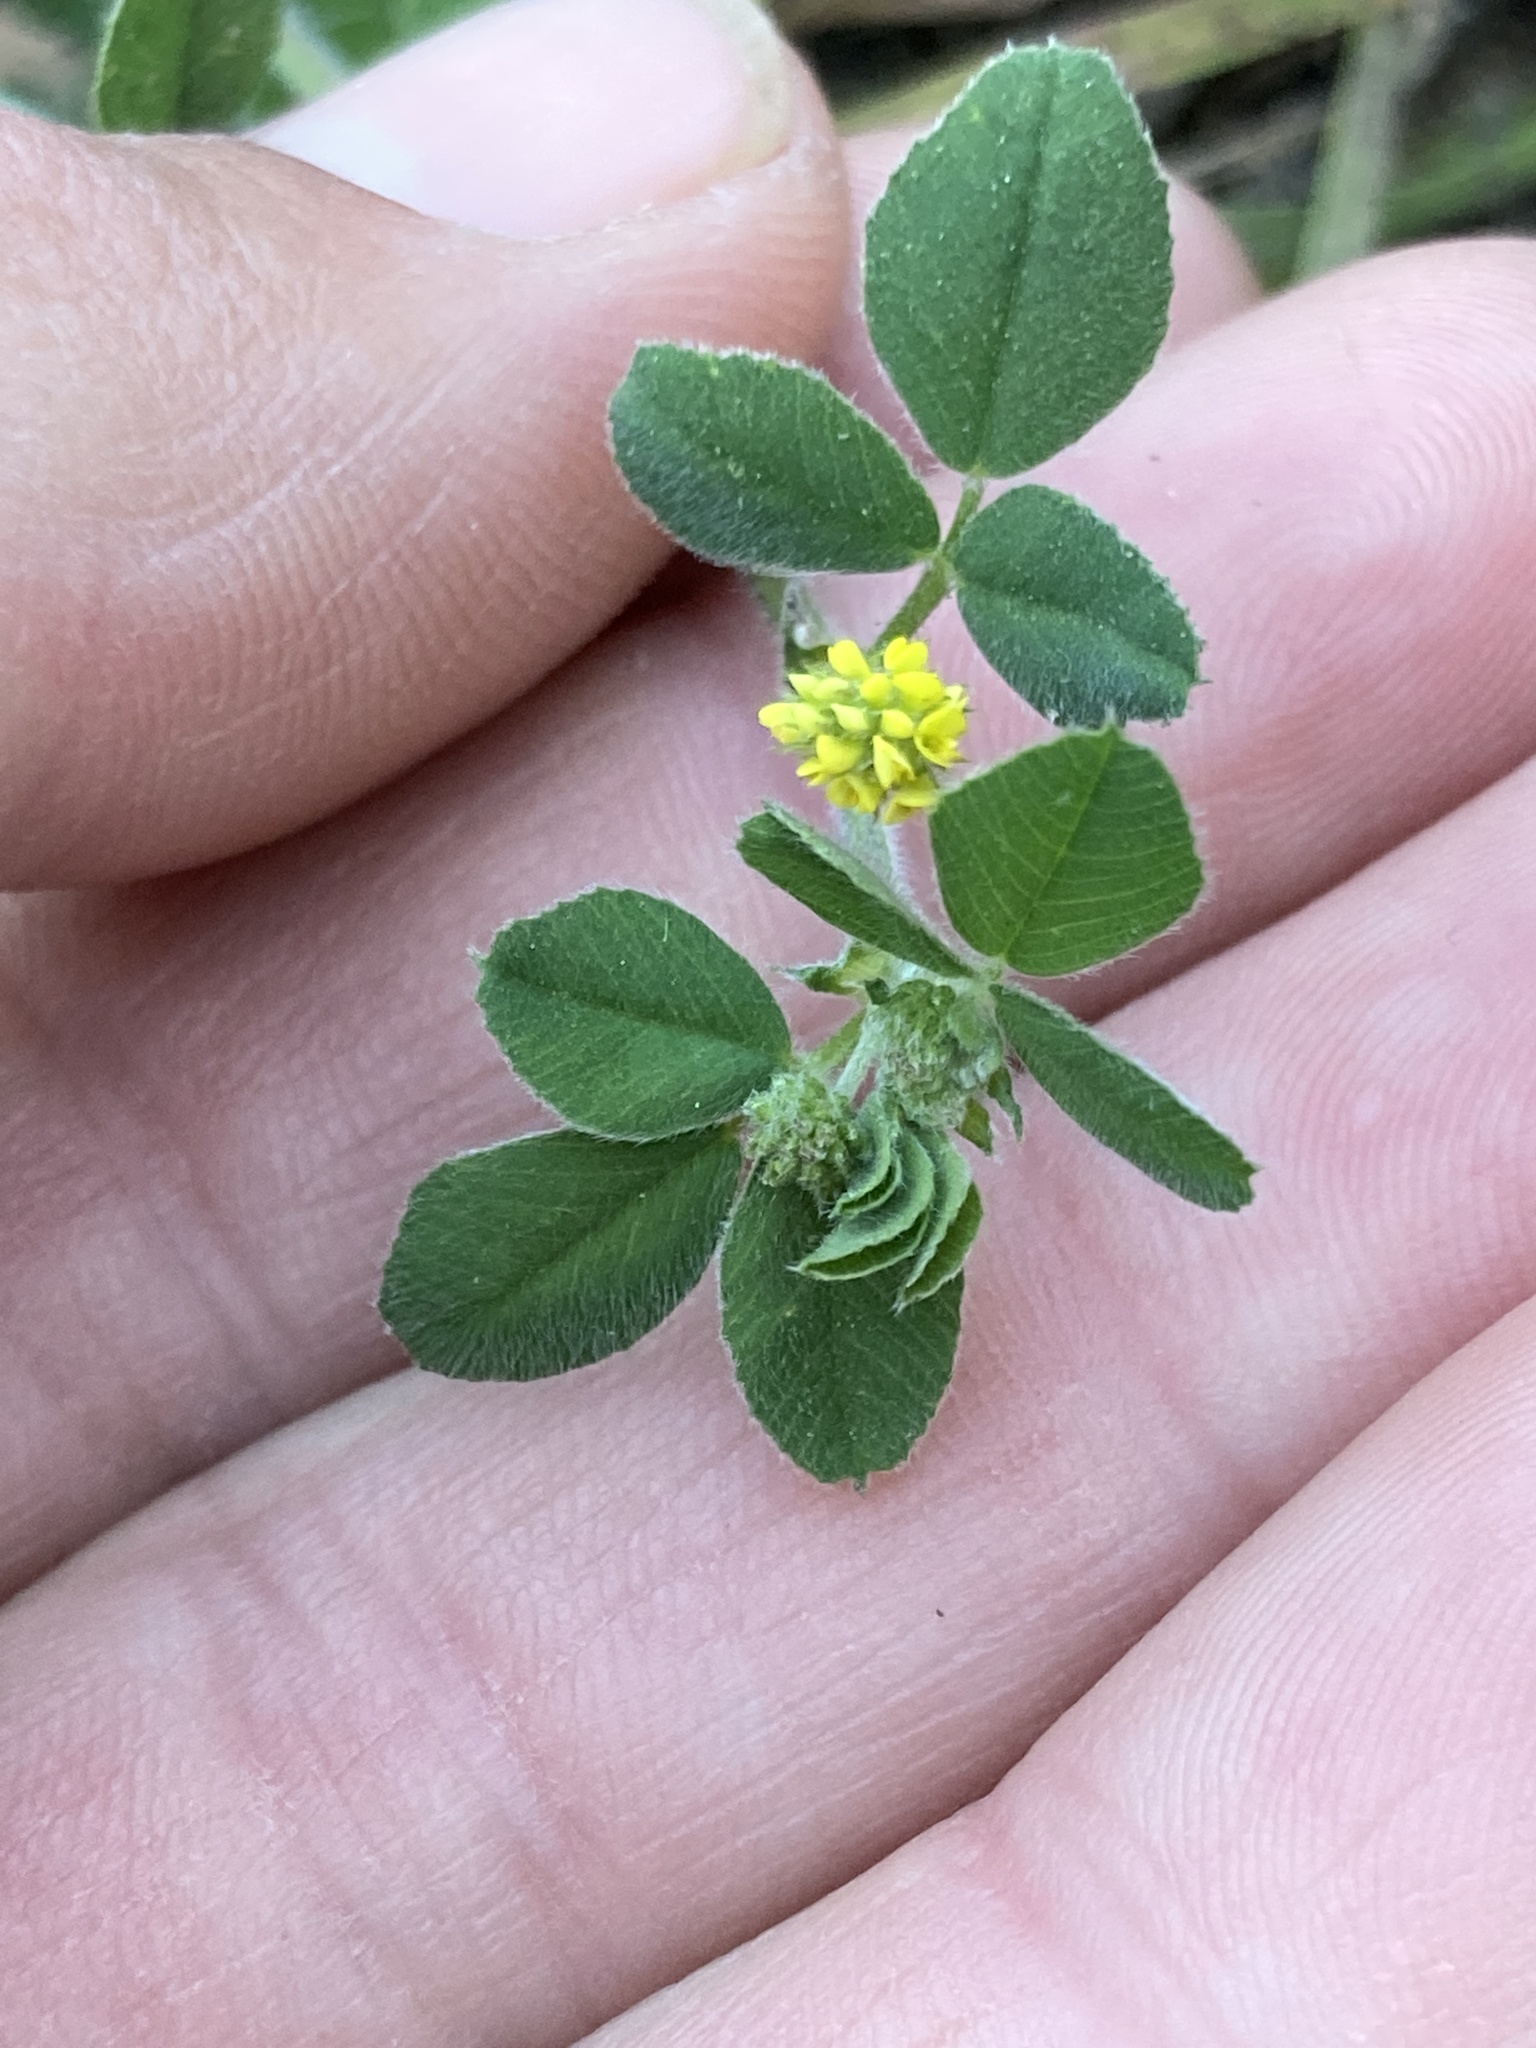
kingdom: Plantae
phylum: Tracheophyta
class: Magnoliopsida
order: Fabales
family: Fabaceae
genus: Medicago
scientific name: Medicago lupulina
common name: Black medick
